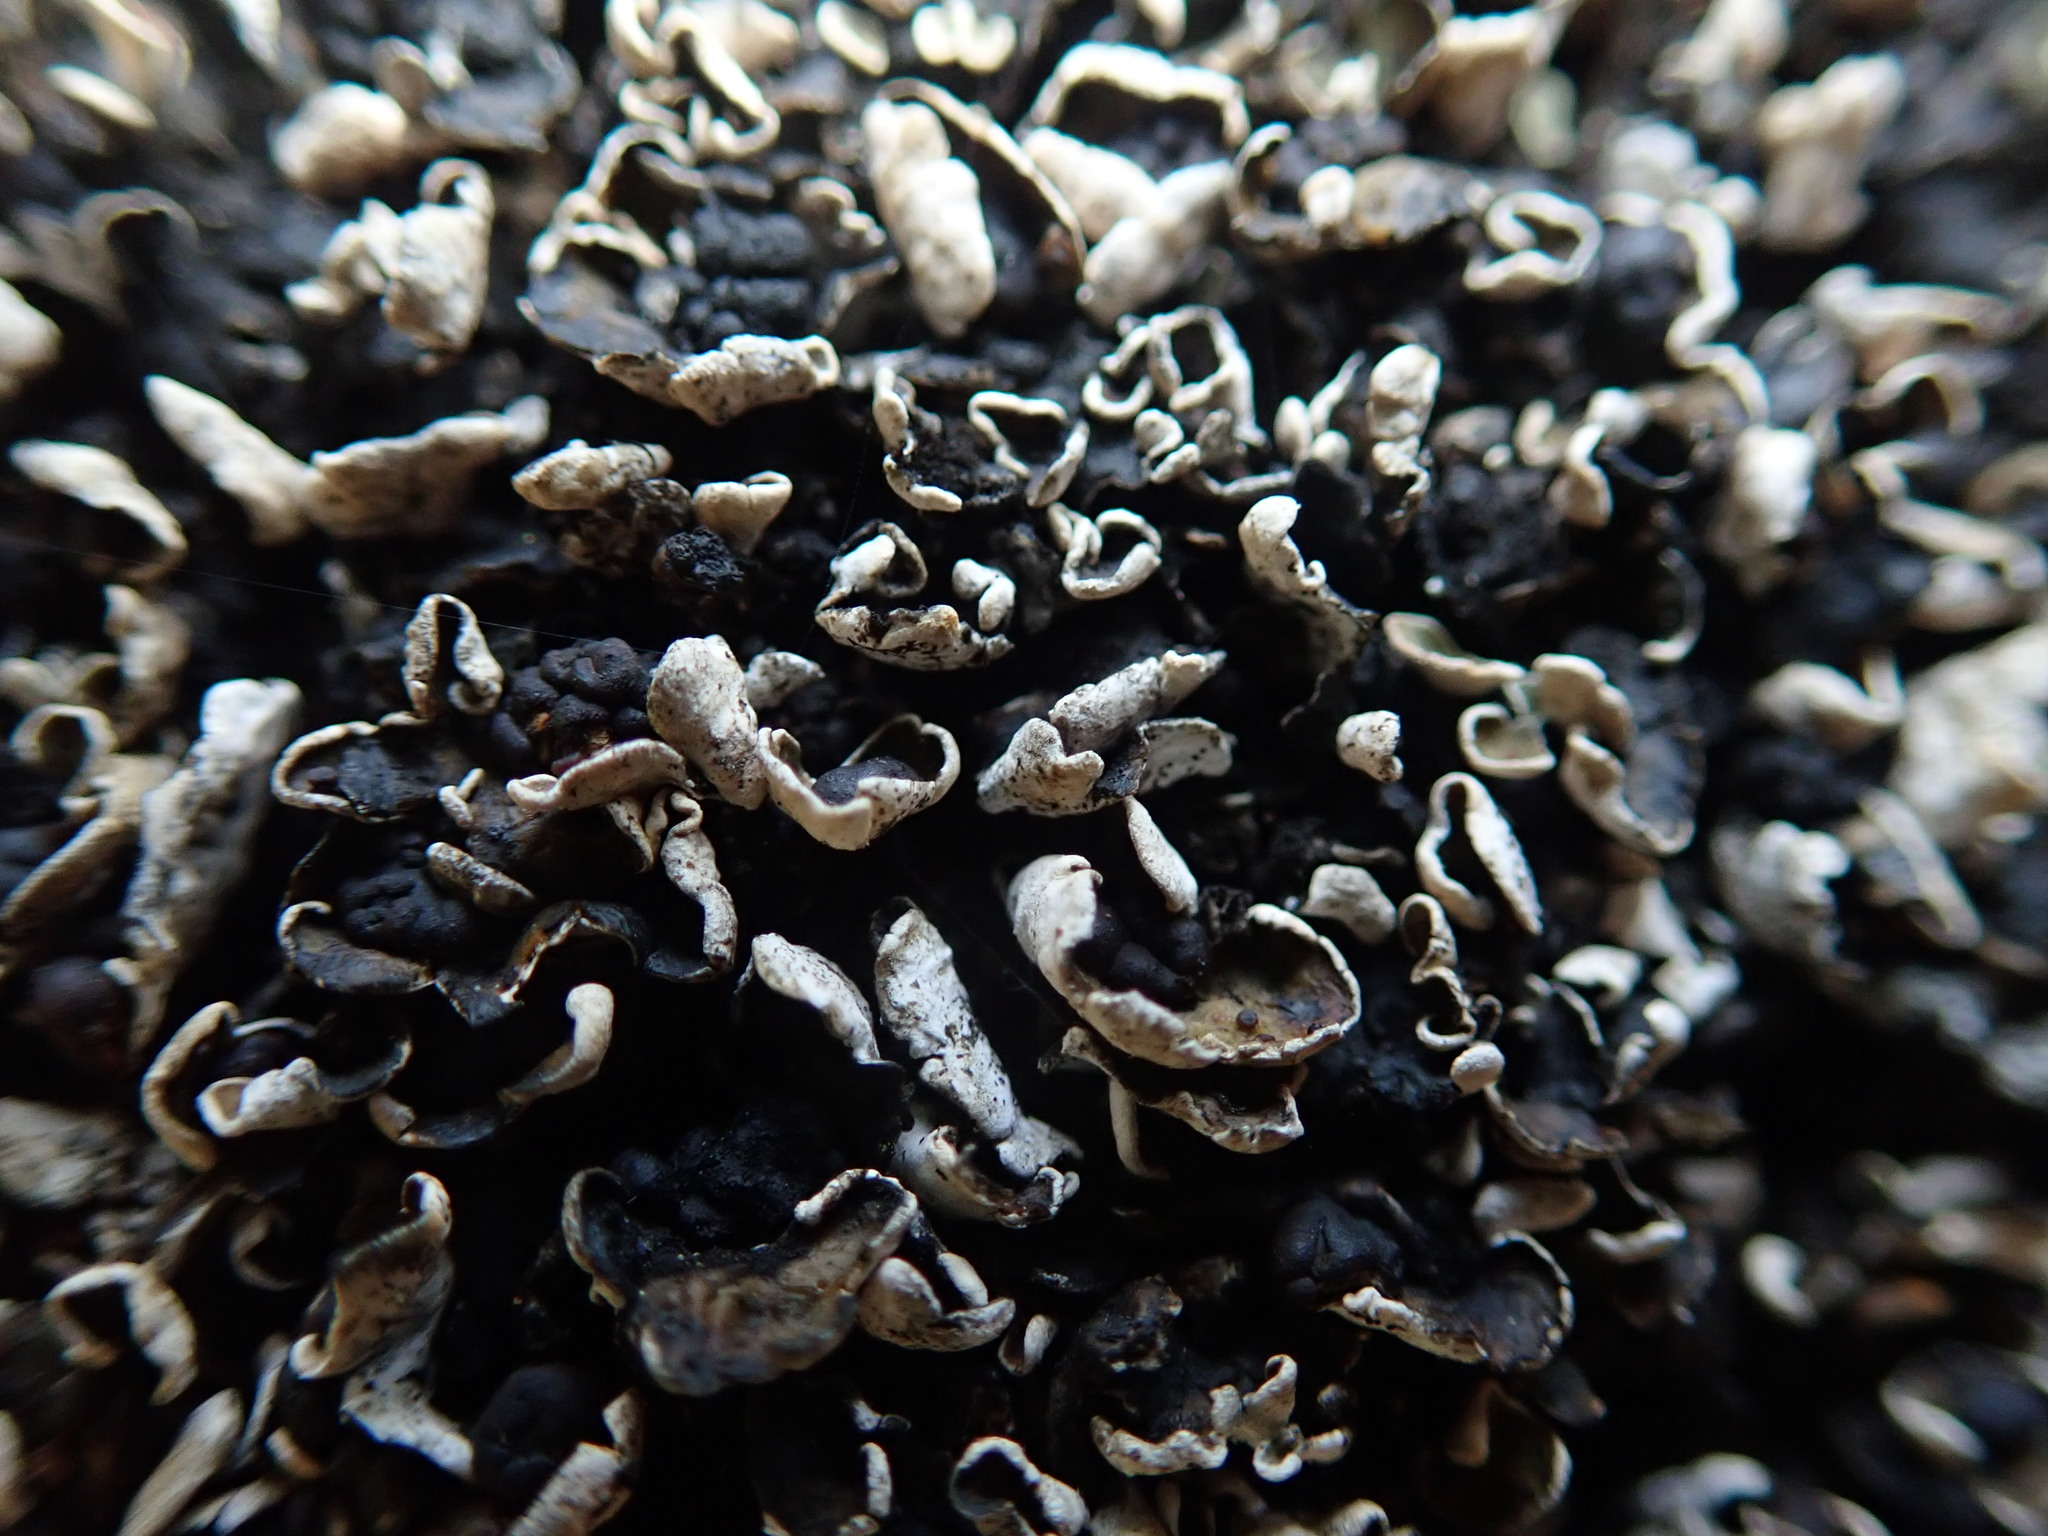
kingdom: Fungi
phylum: Ascomycota
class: Lecanoromycetes
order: Lecanorales
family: Psoraceae
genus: Psora
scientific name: Psora nipponica
